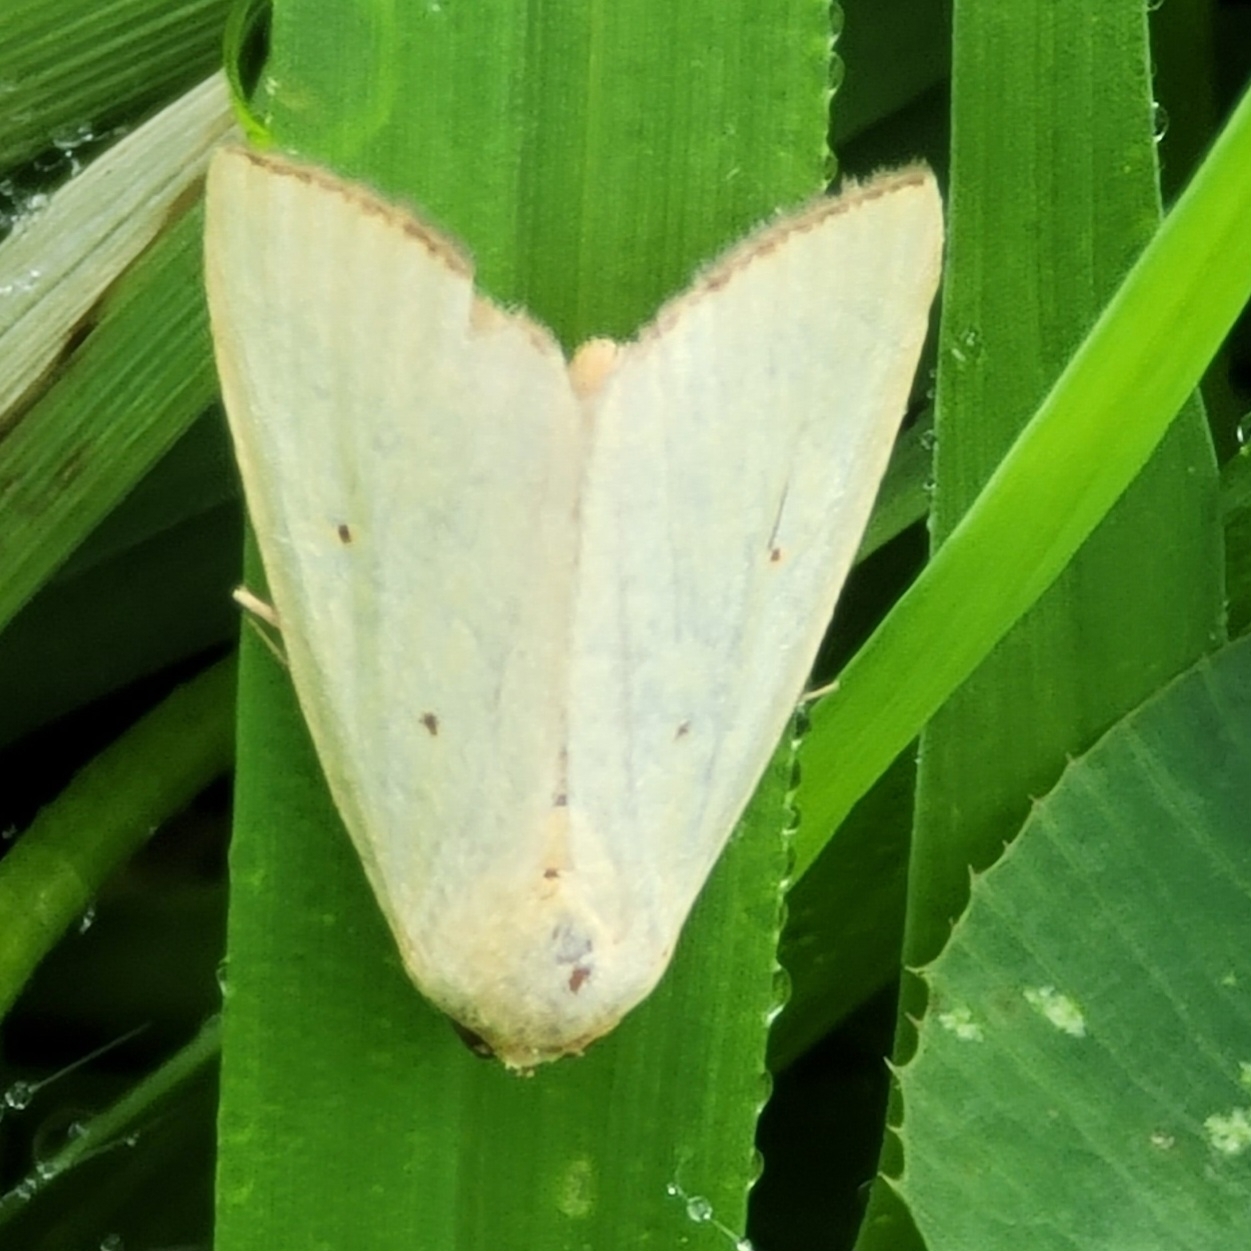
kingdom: Animalia
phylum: Arthropoda
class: Insecta
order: Lepidoptera
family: Noctuidae
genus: Marimatha
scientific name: Marimatha nigrofimbria
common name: Black-bordered lemon moth
